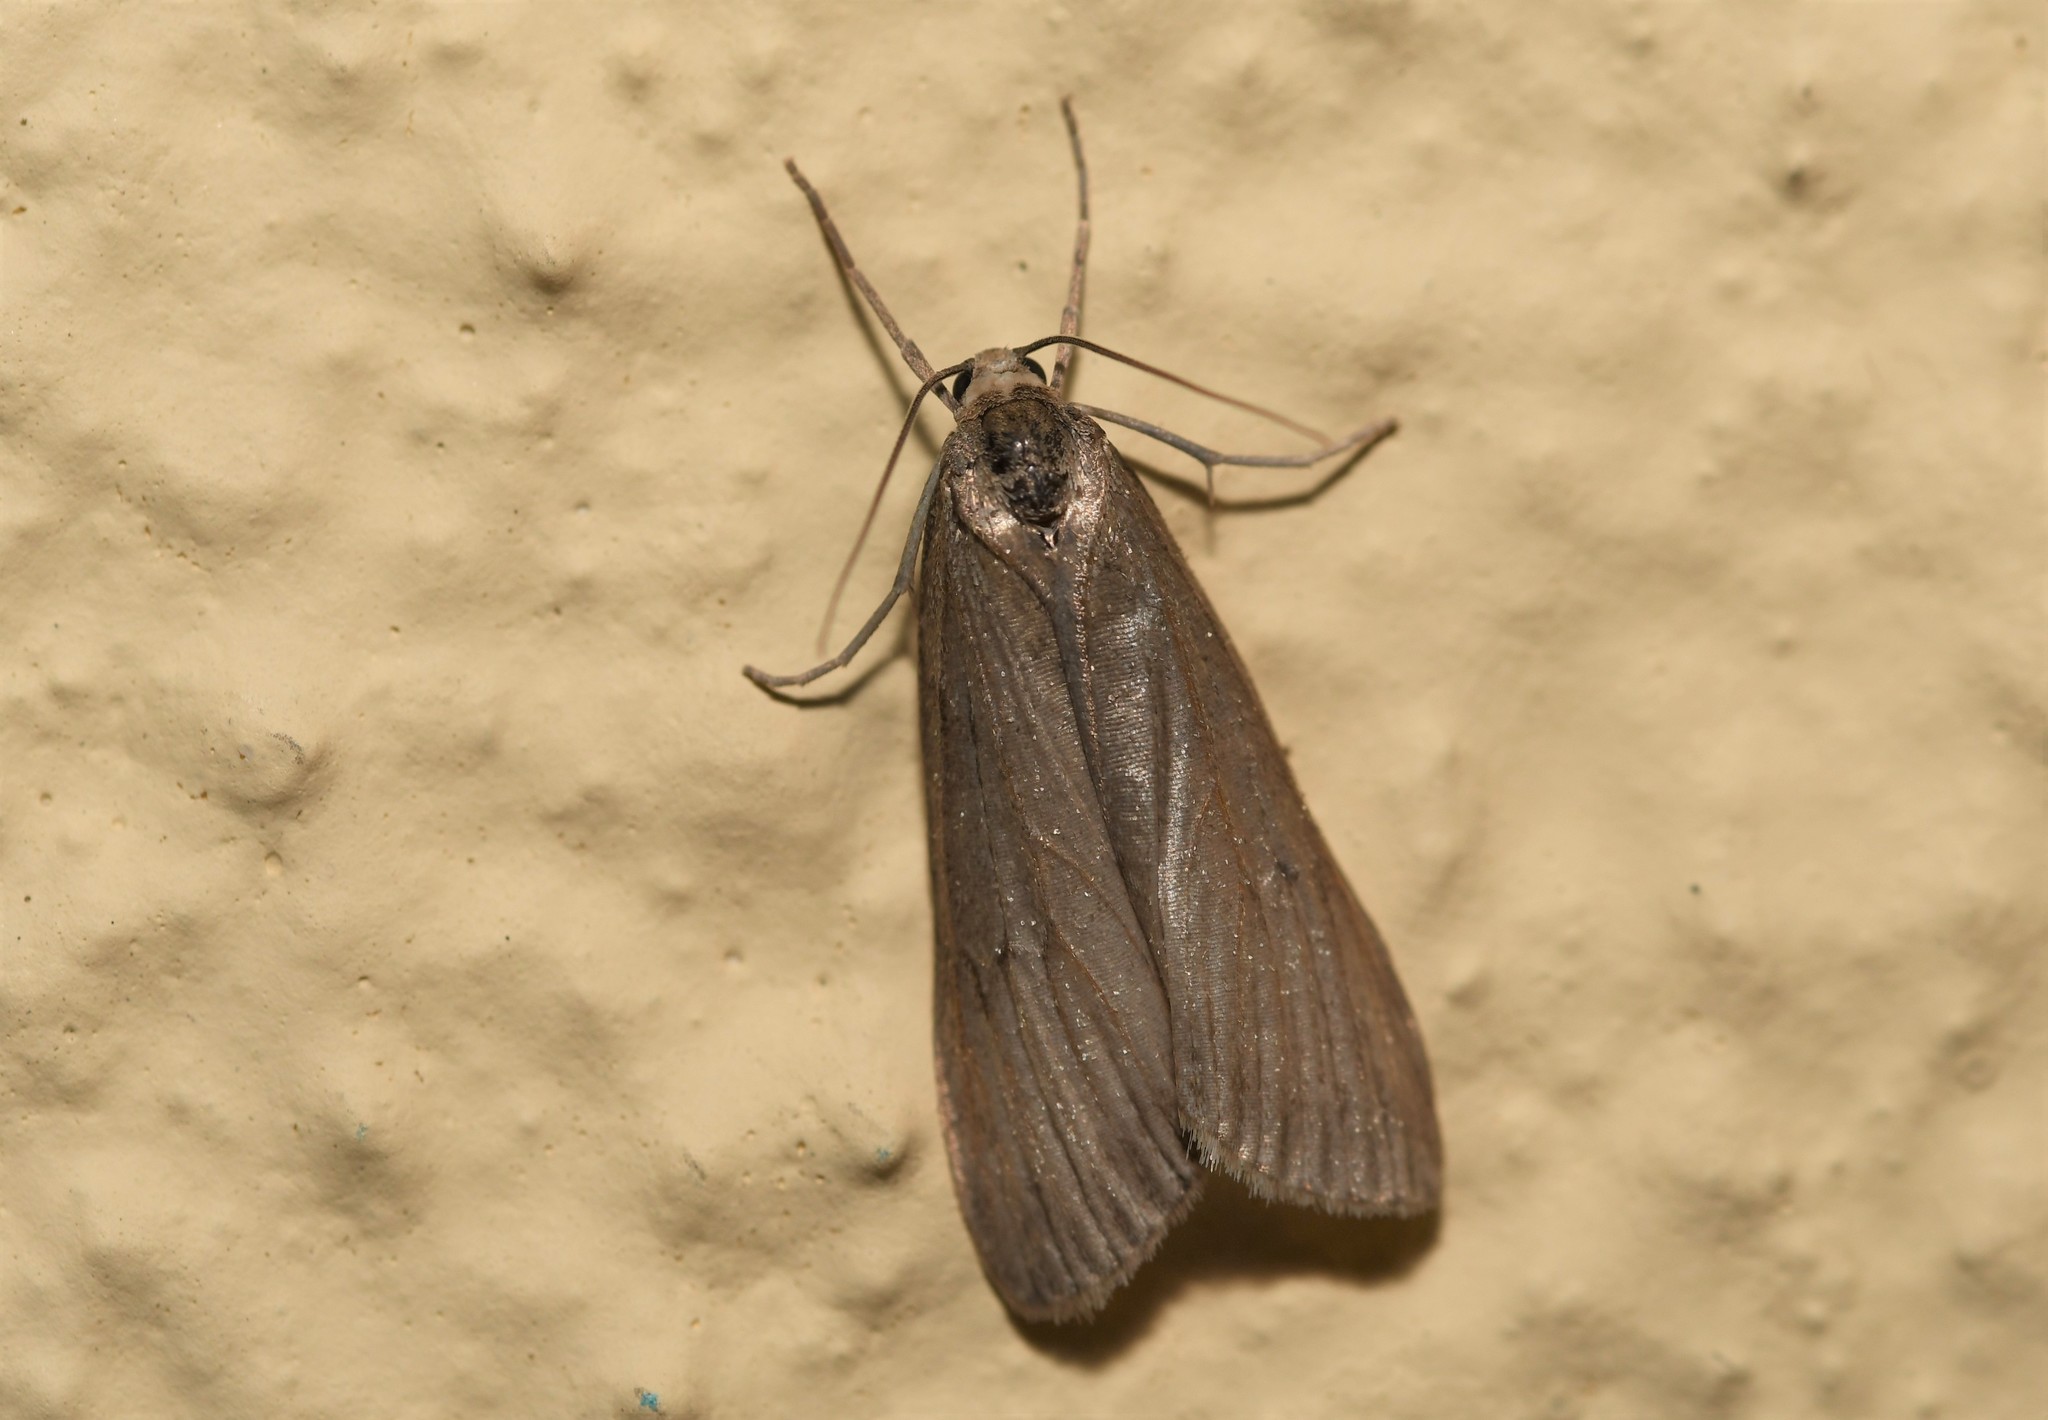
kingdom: Animalia
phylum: Arthropoda
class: Insecta
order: Lepidoptera
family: Geometridae
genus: Pachycnemia
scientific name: Pachycnemia hippocastanaria
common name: Horse chestnut
